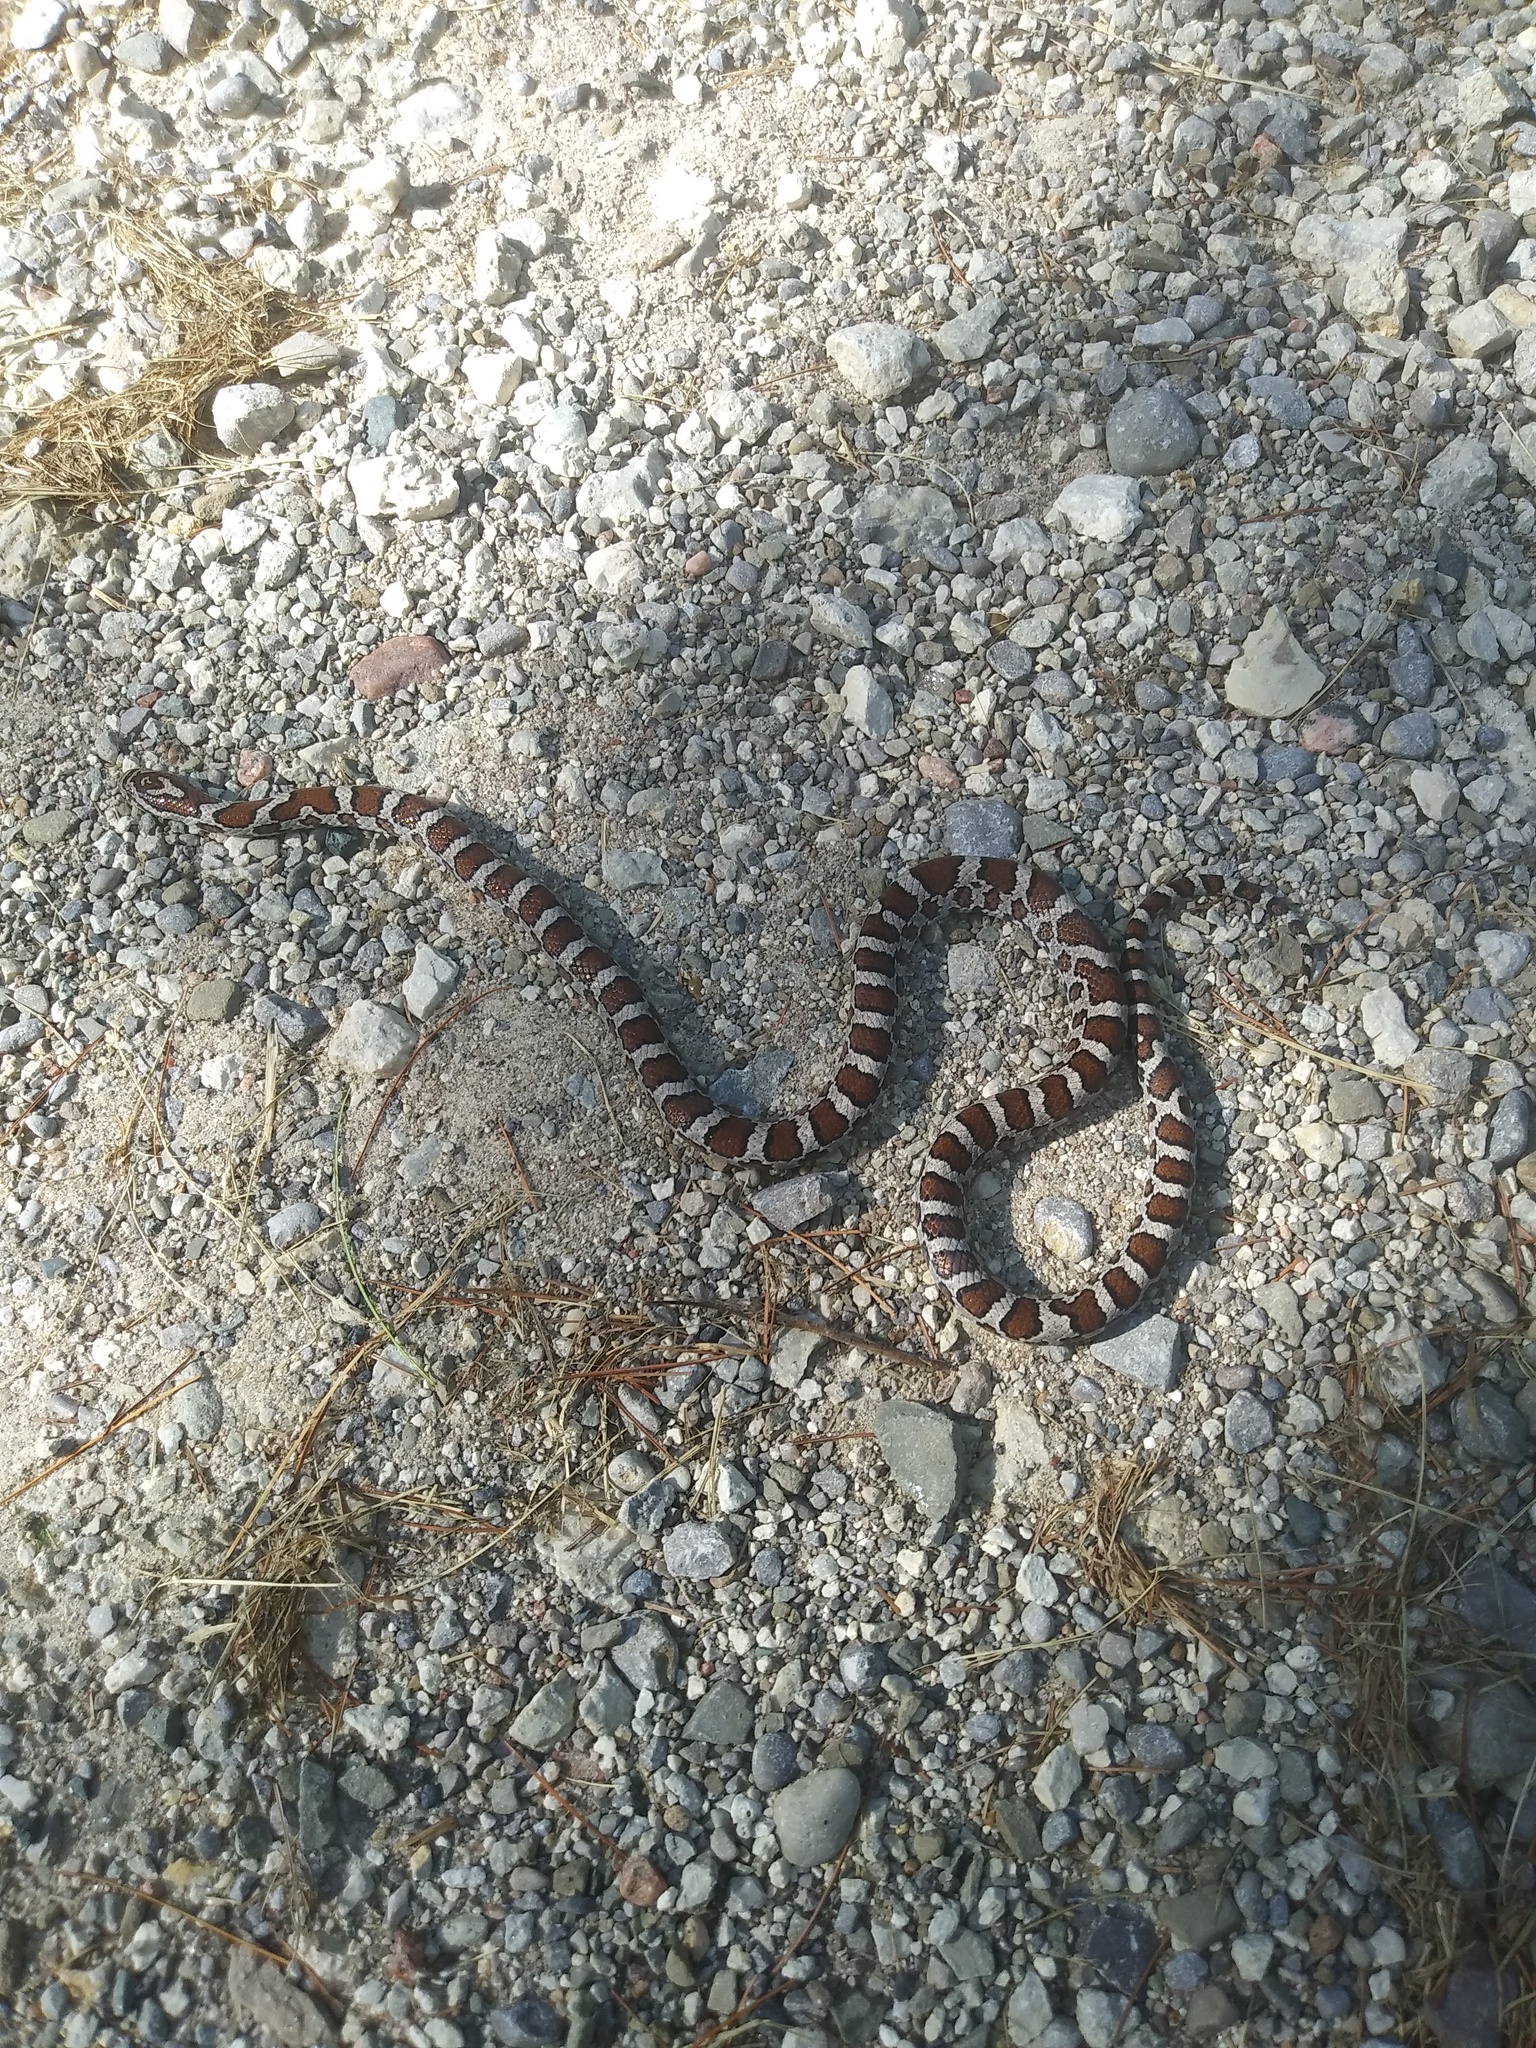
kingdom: Animalia
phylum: Chordata
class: Squamata
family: Colubridae
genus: Lampropeltis
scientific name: Lampropeltis triangulum
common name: Eastern milksnake
